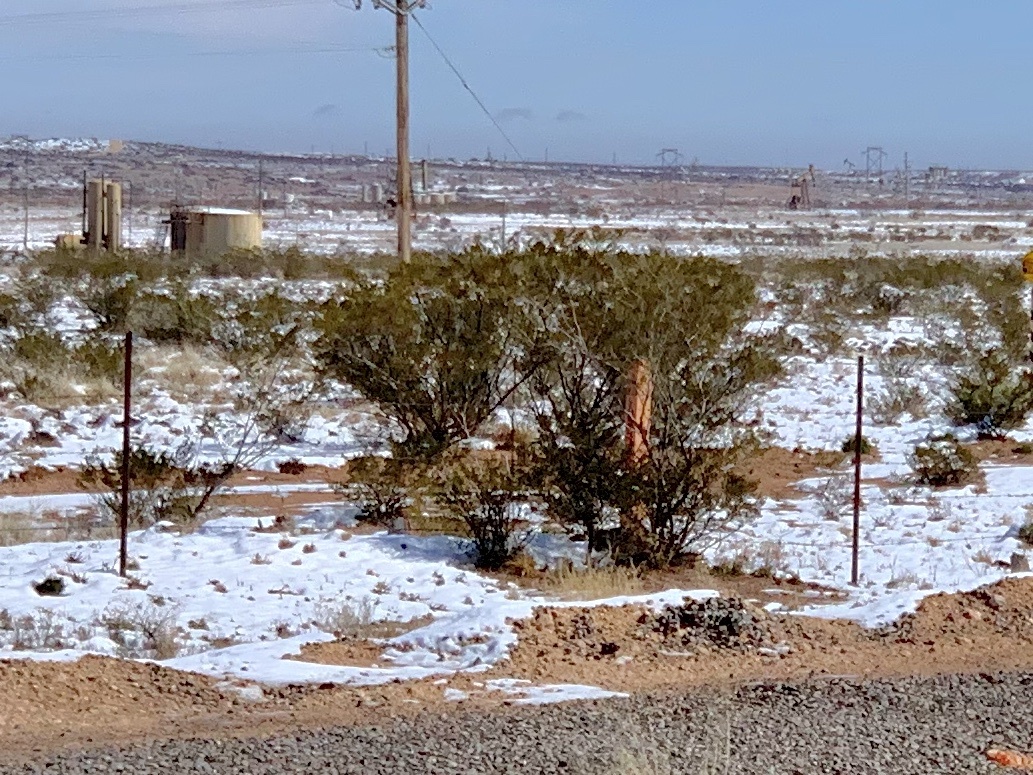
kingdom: Plantae
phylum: Tracheophyta
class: Magnoliopsida
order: Zygophyllales
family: Zygophyllaceae
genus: Larrea
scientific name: Larrea tridentata
